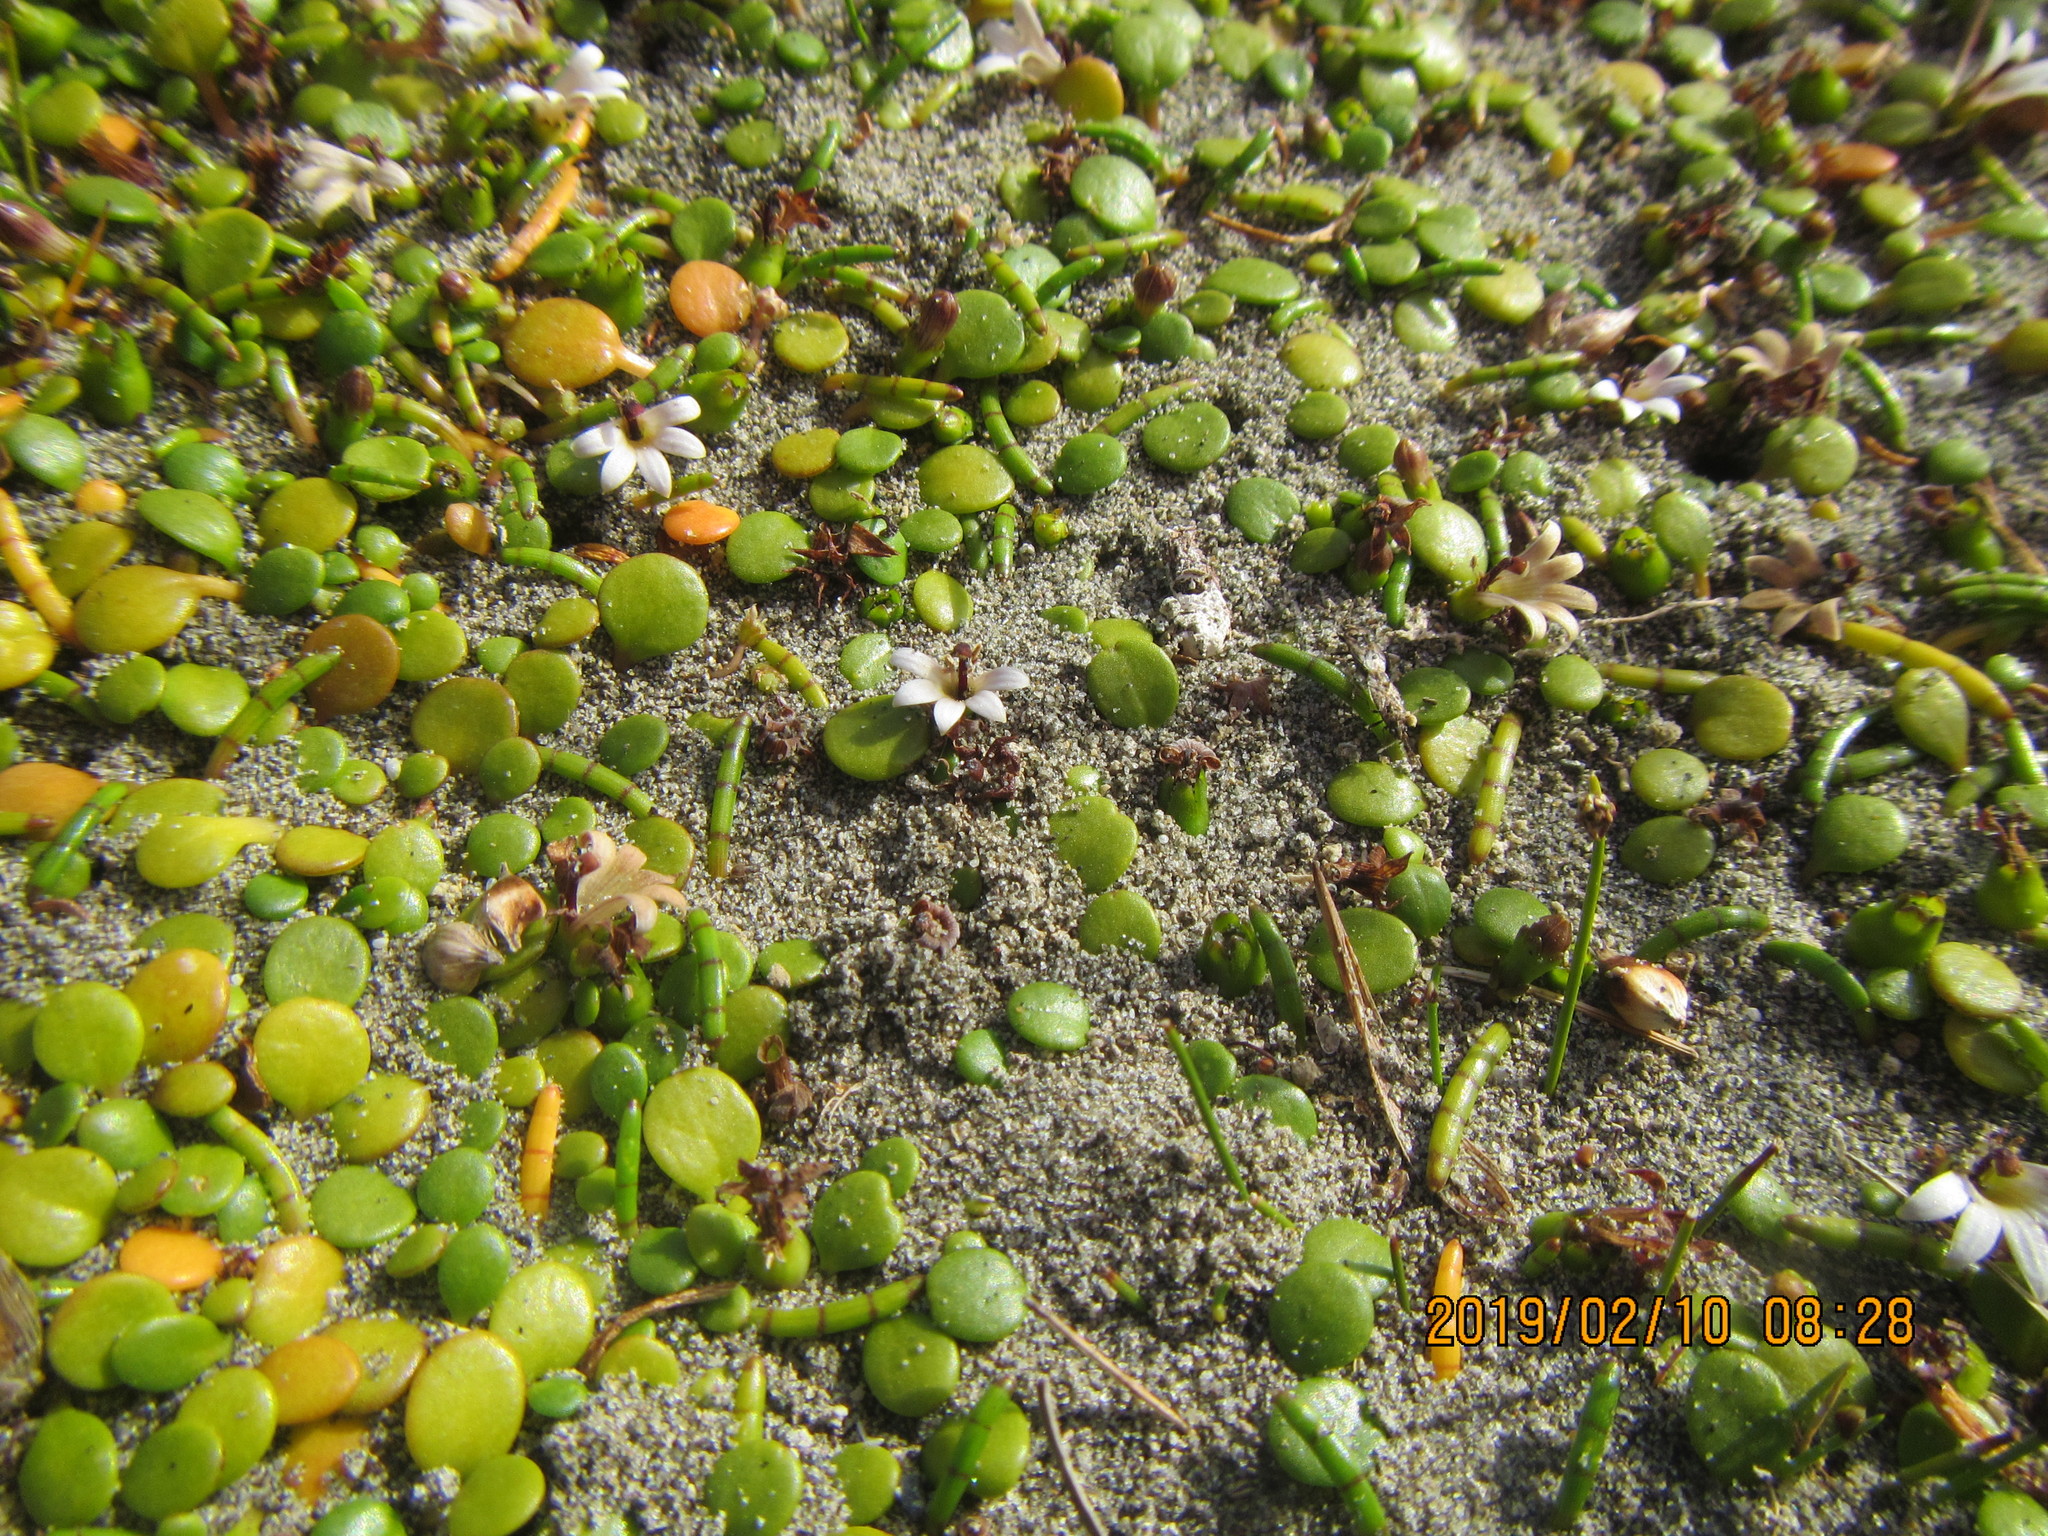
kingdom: Plantae
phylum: Tracheophyta
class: Magnoliopsida
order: Asterales
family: Goodeniaceae
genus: Goodenia
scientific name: Goodenia heenanii
